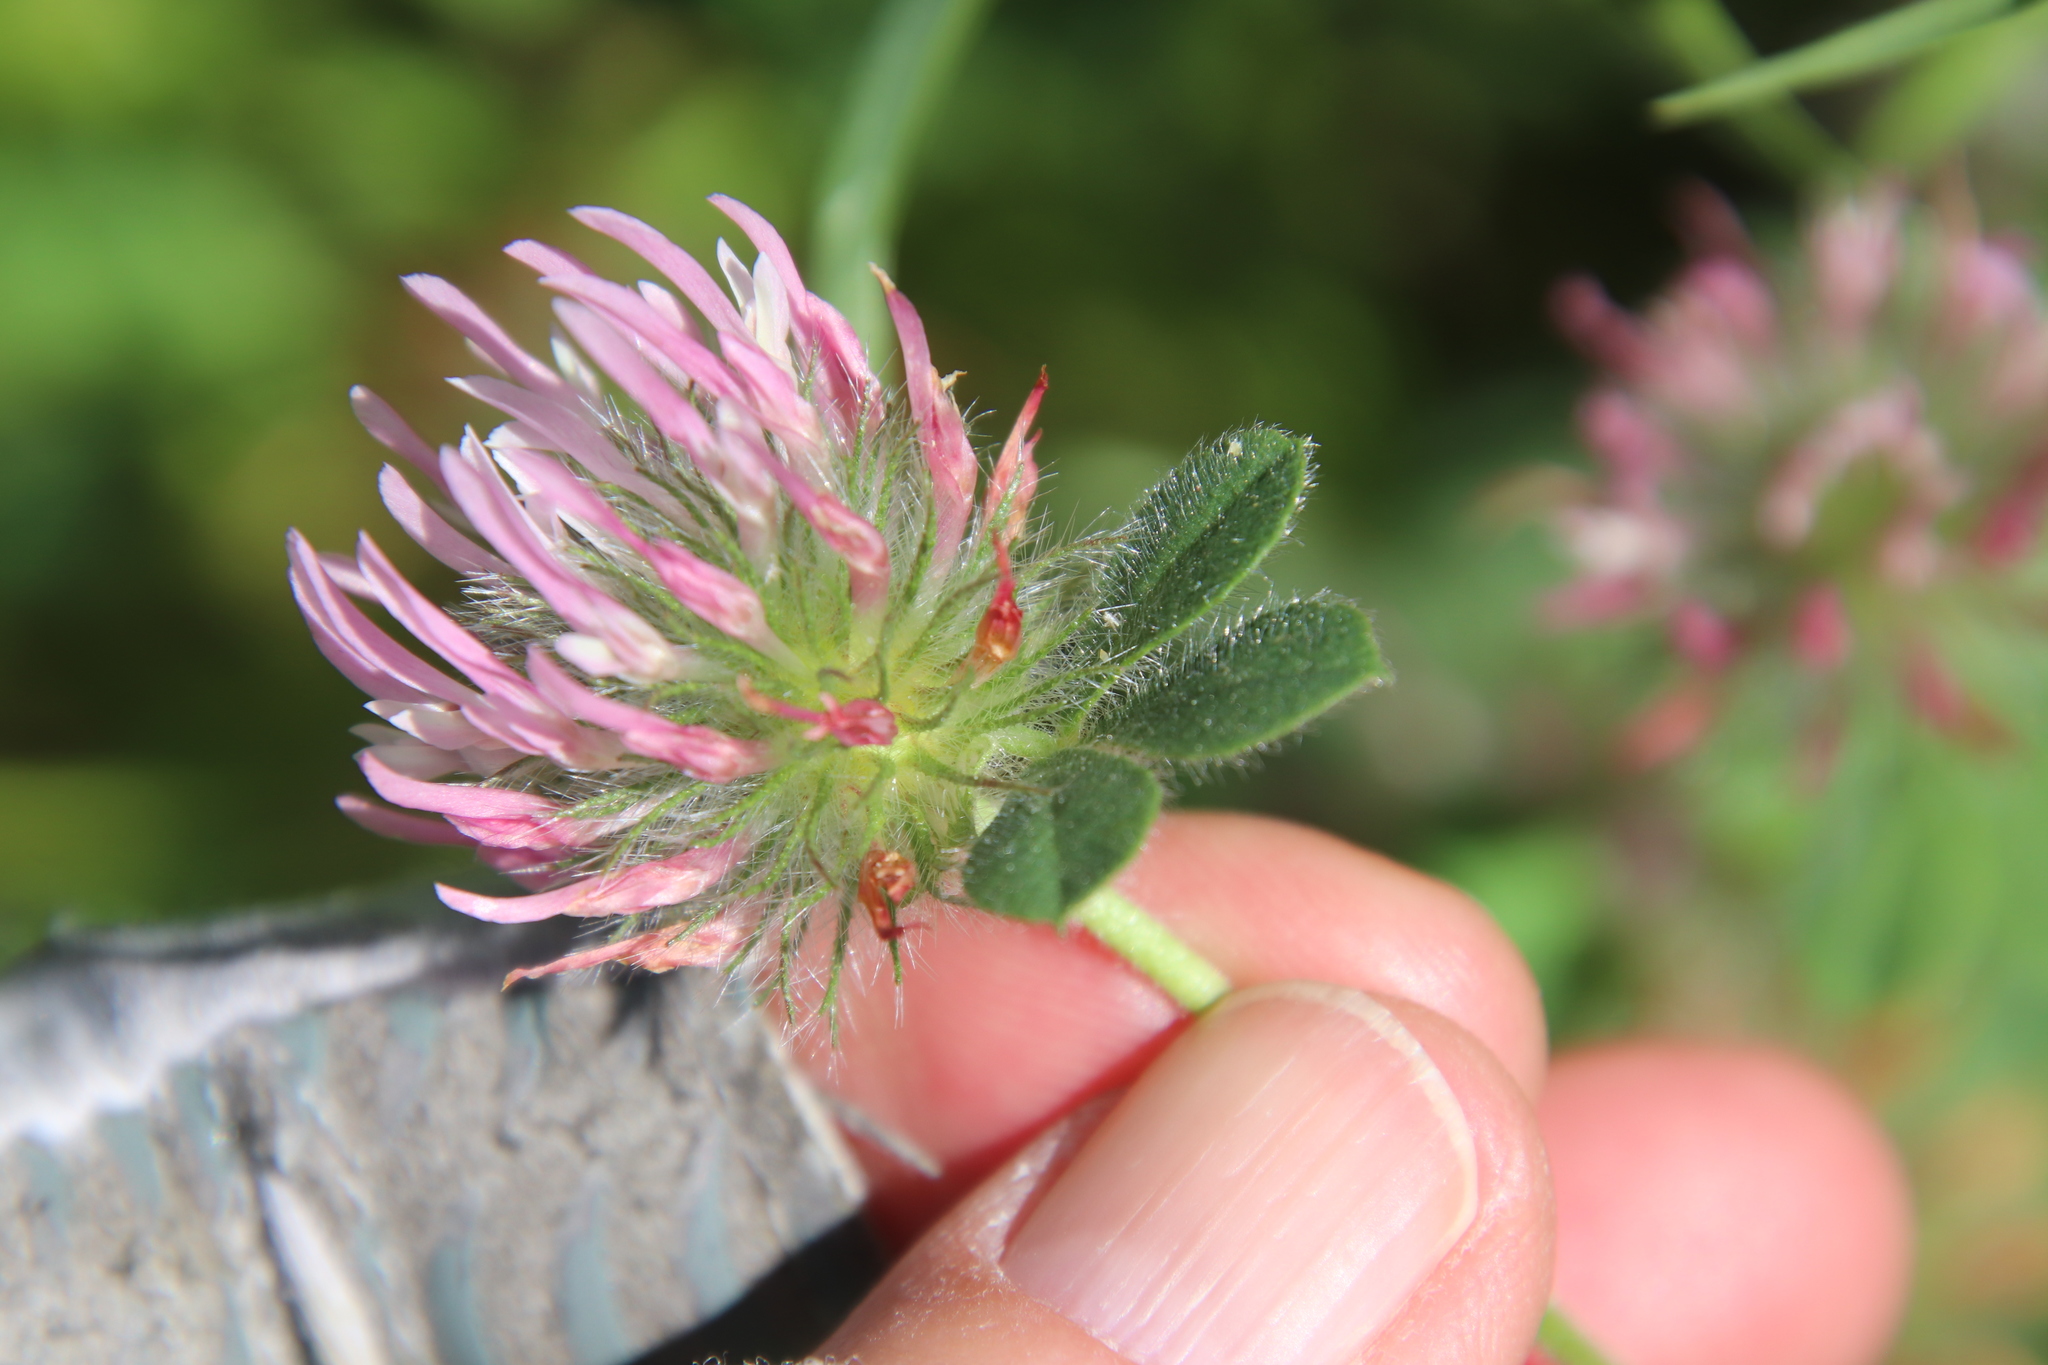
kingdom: Plantae
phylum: Tracheophyta
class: Magnoliopsida
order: Fabales
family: Fabaceae
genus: Trifolium
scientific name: Trifolium hirtum
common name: Rose clover
